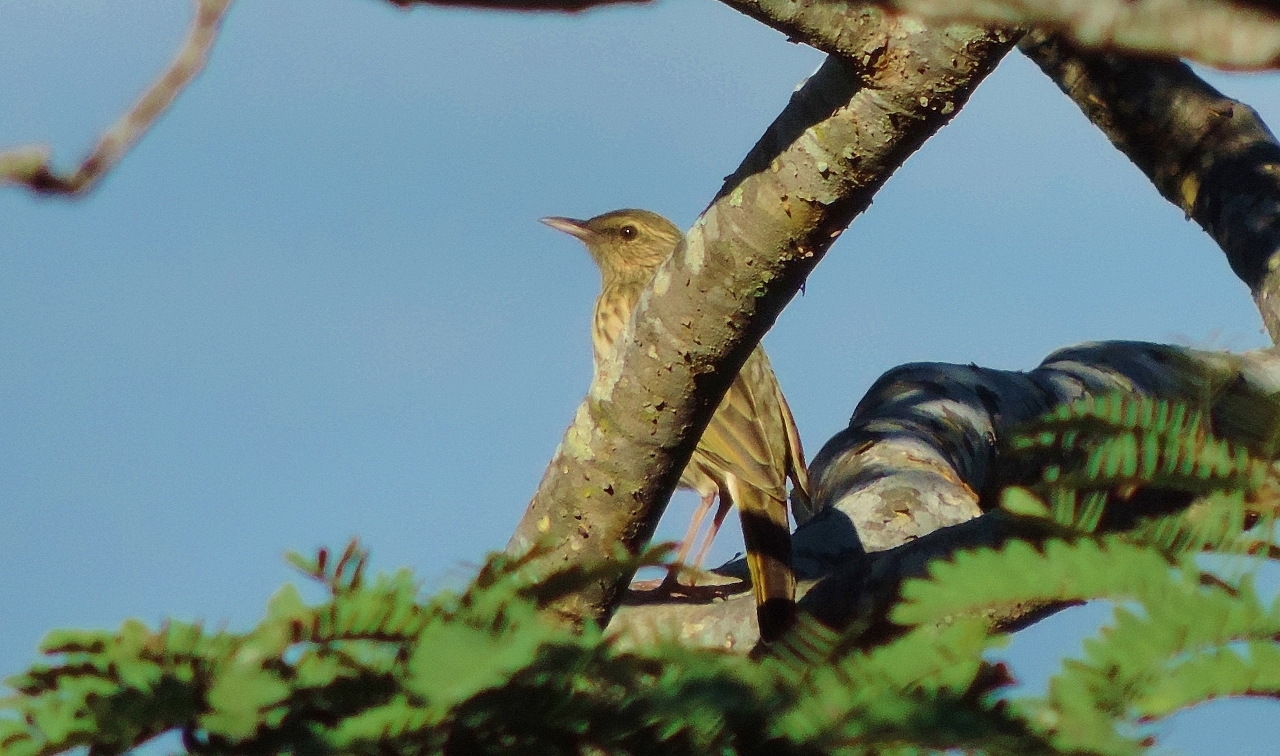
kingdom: Animalia
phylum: Chordata
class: Aves
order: Passeriformes
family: Motacillidae
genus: Anthus
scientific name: Anthus lineiventris
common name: Striped pipit
